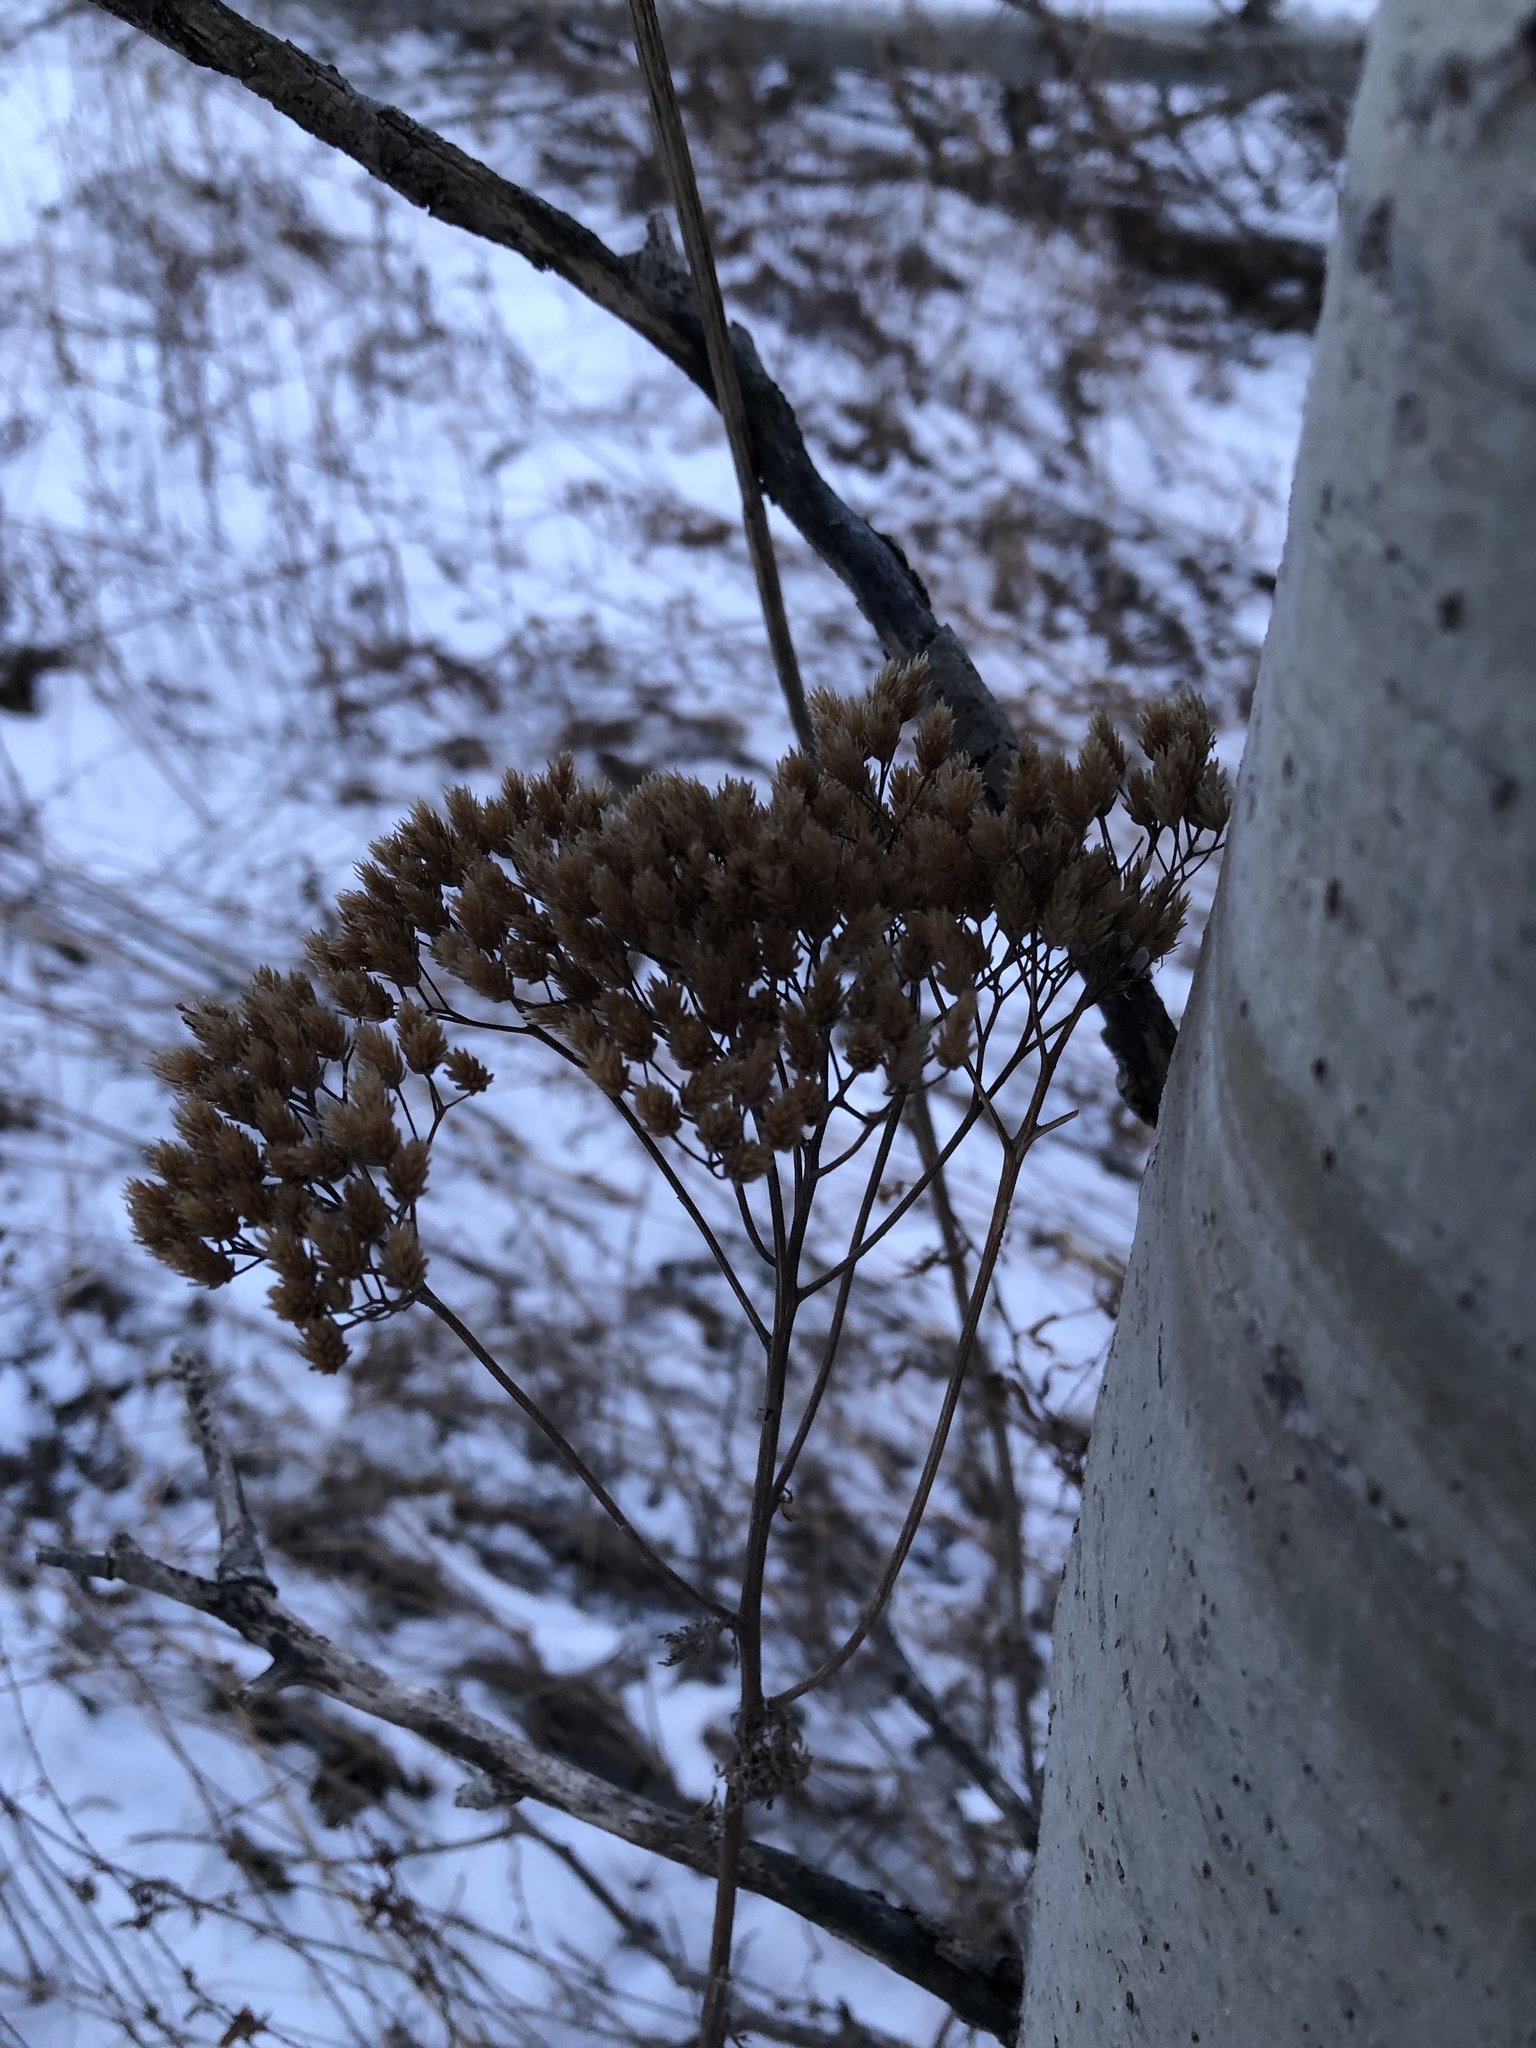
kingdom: Plantae
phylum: Tracheophyta
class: Magnoliopsida
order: Asterales
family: Asteraceae
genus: Achillea
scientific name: Achillea millefolium
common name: Yarrow
